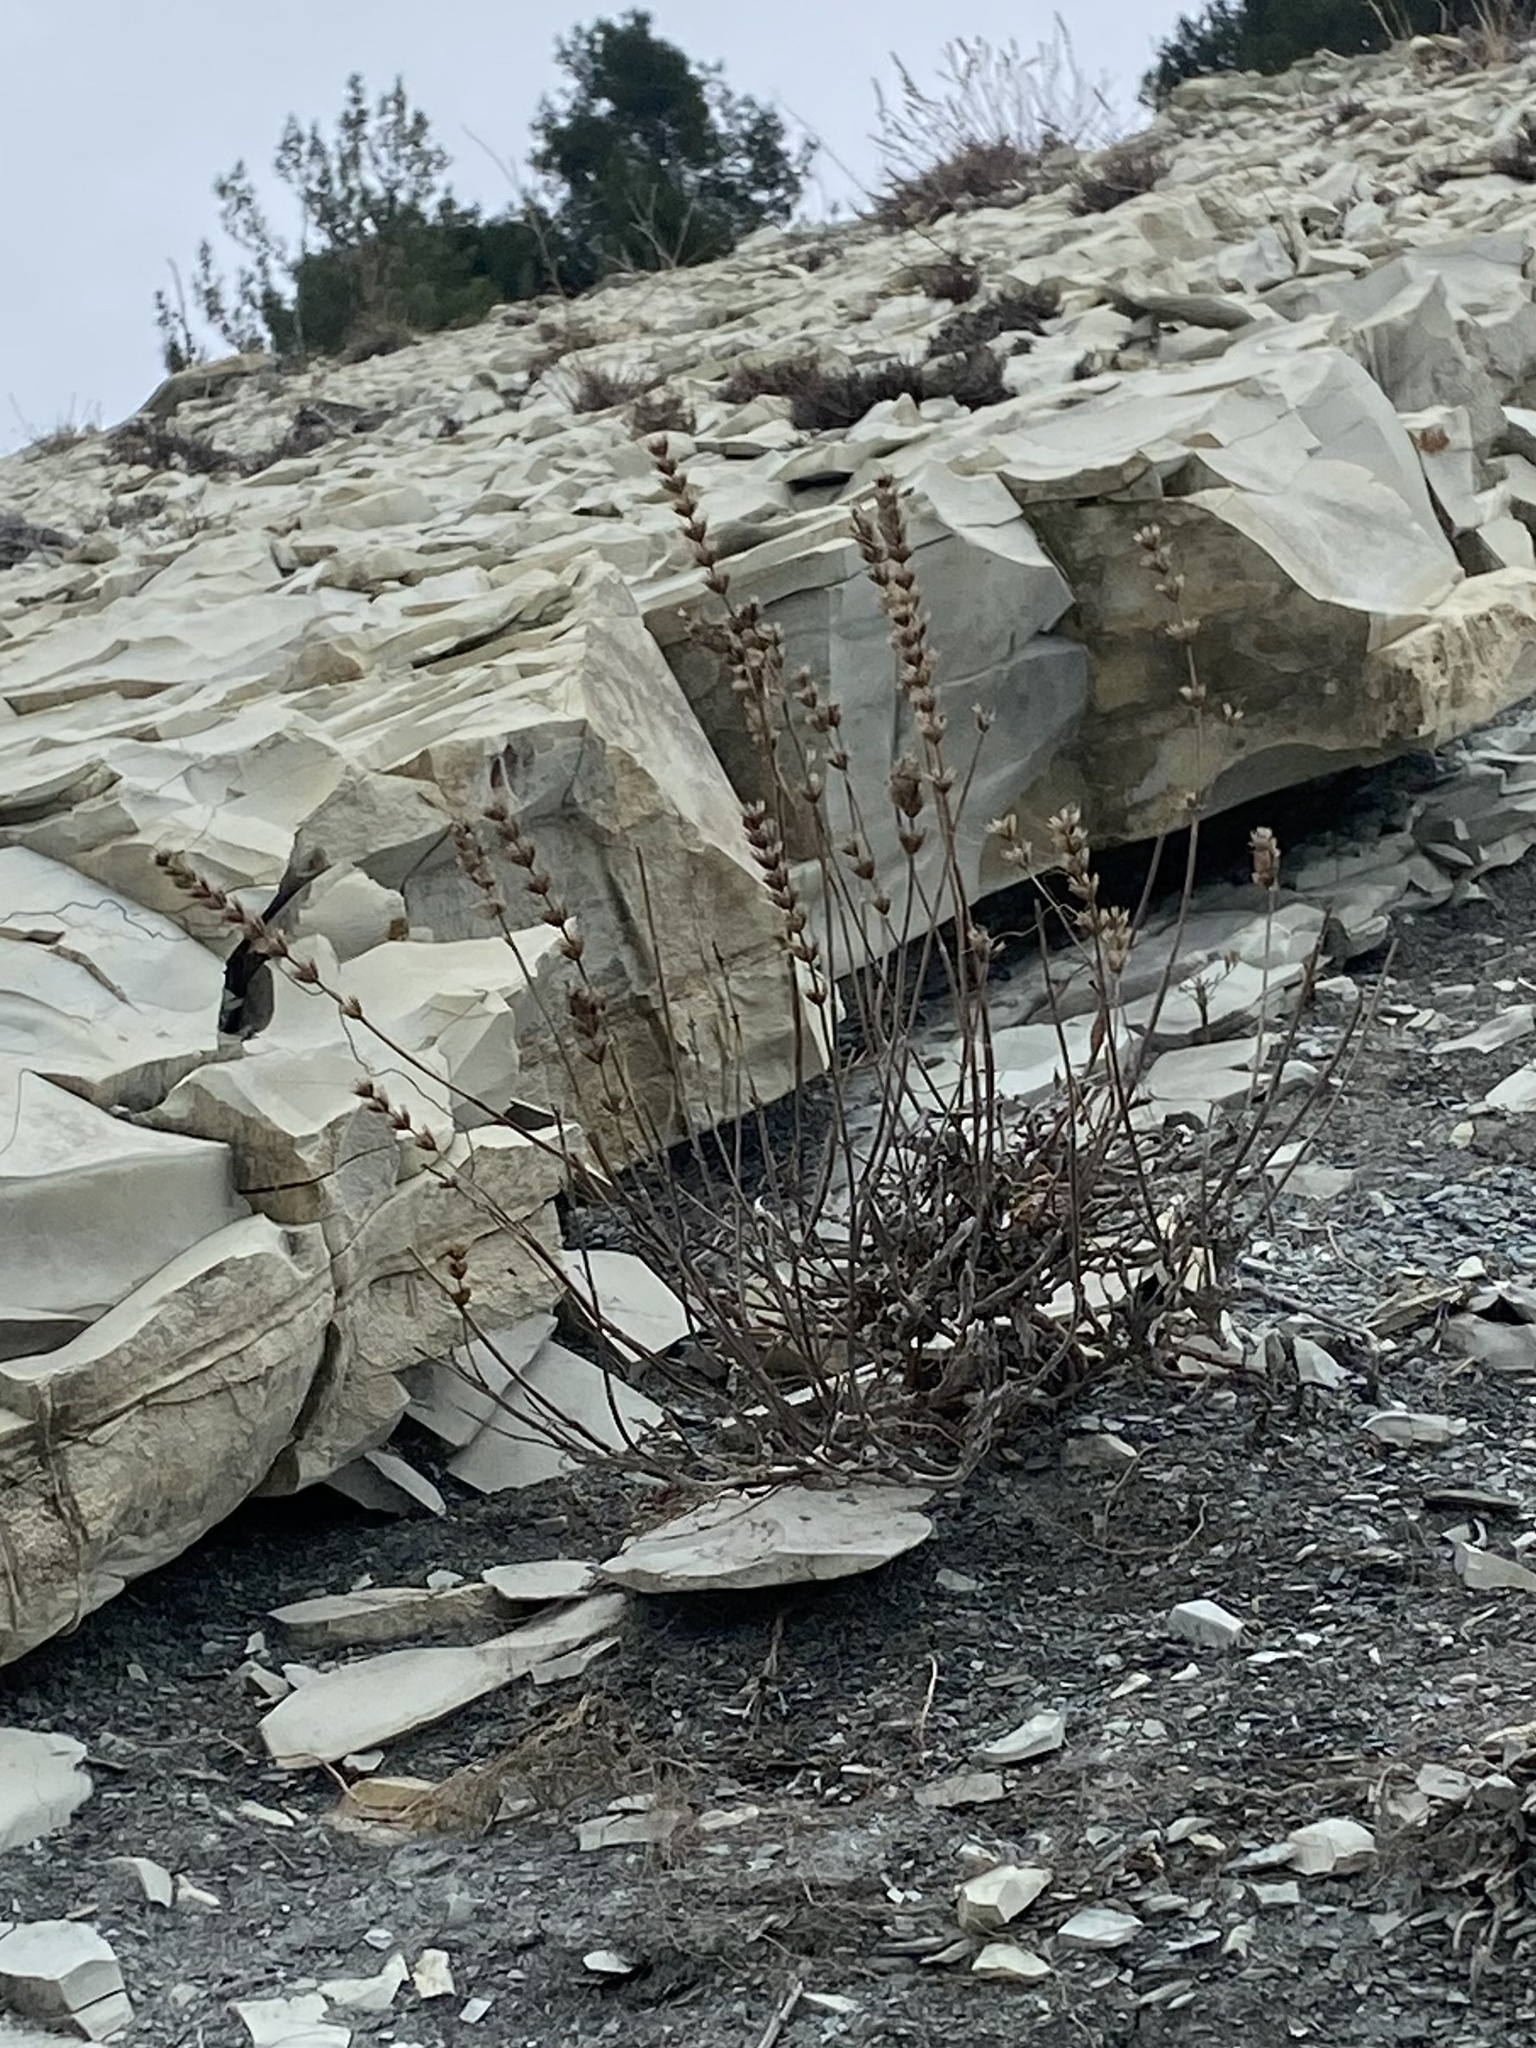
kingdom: Plantae
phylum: Tracheophyta
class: Magnoliopsida
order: Lamiales
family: Lamiaceae
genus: Sideritis
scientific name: Sideritis euxina
